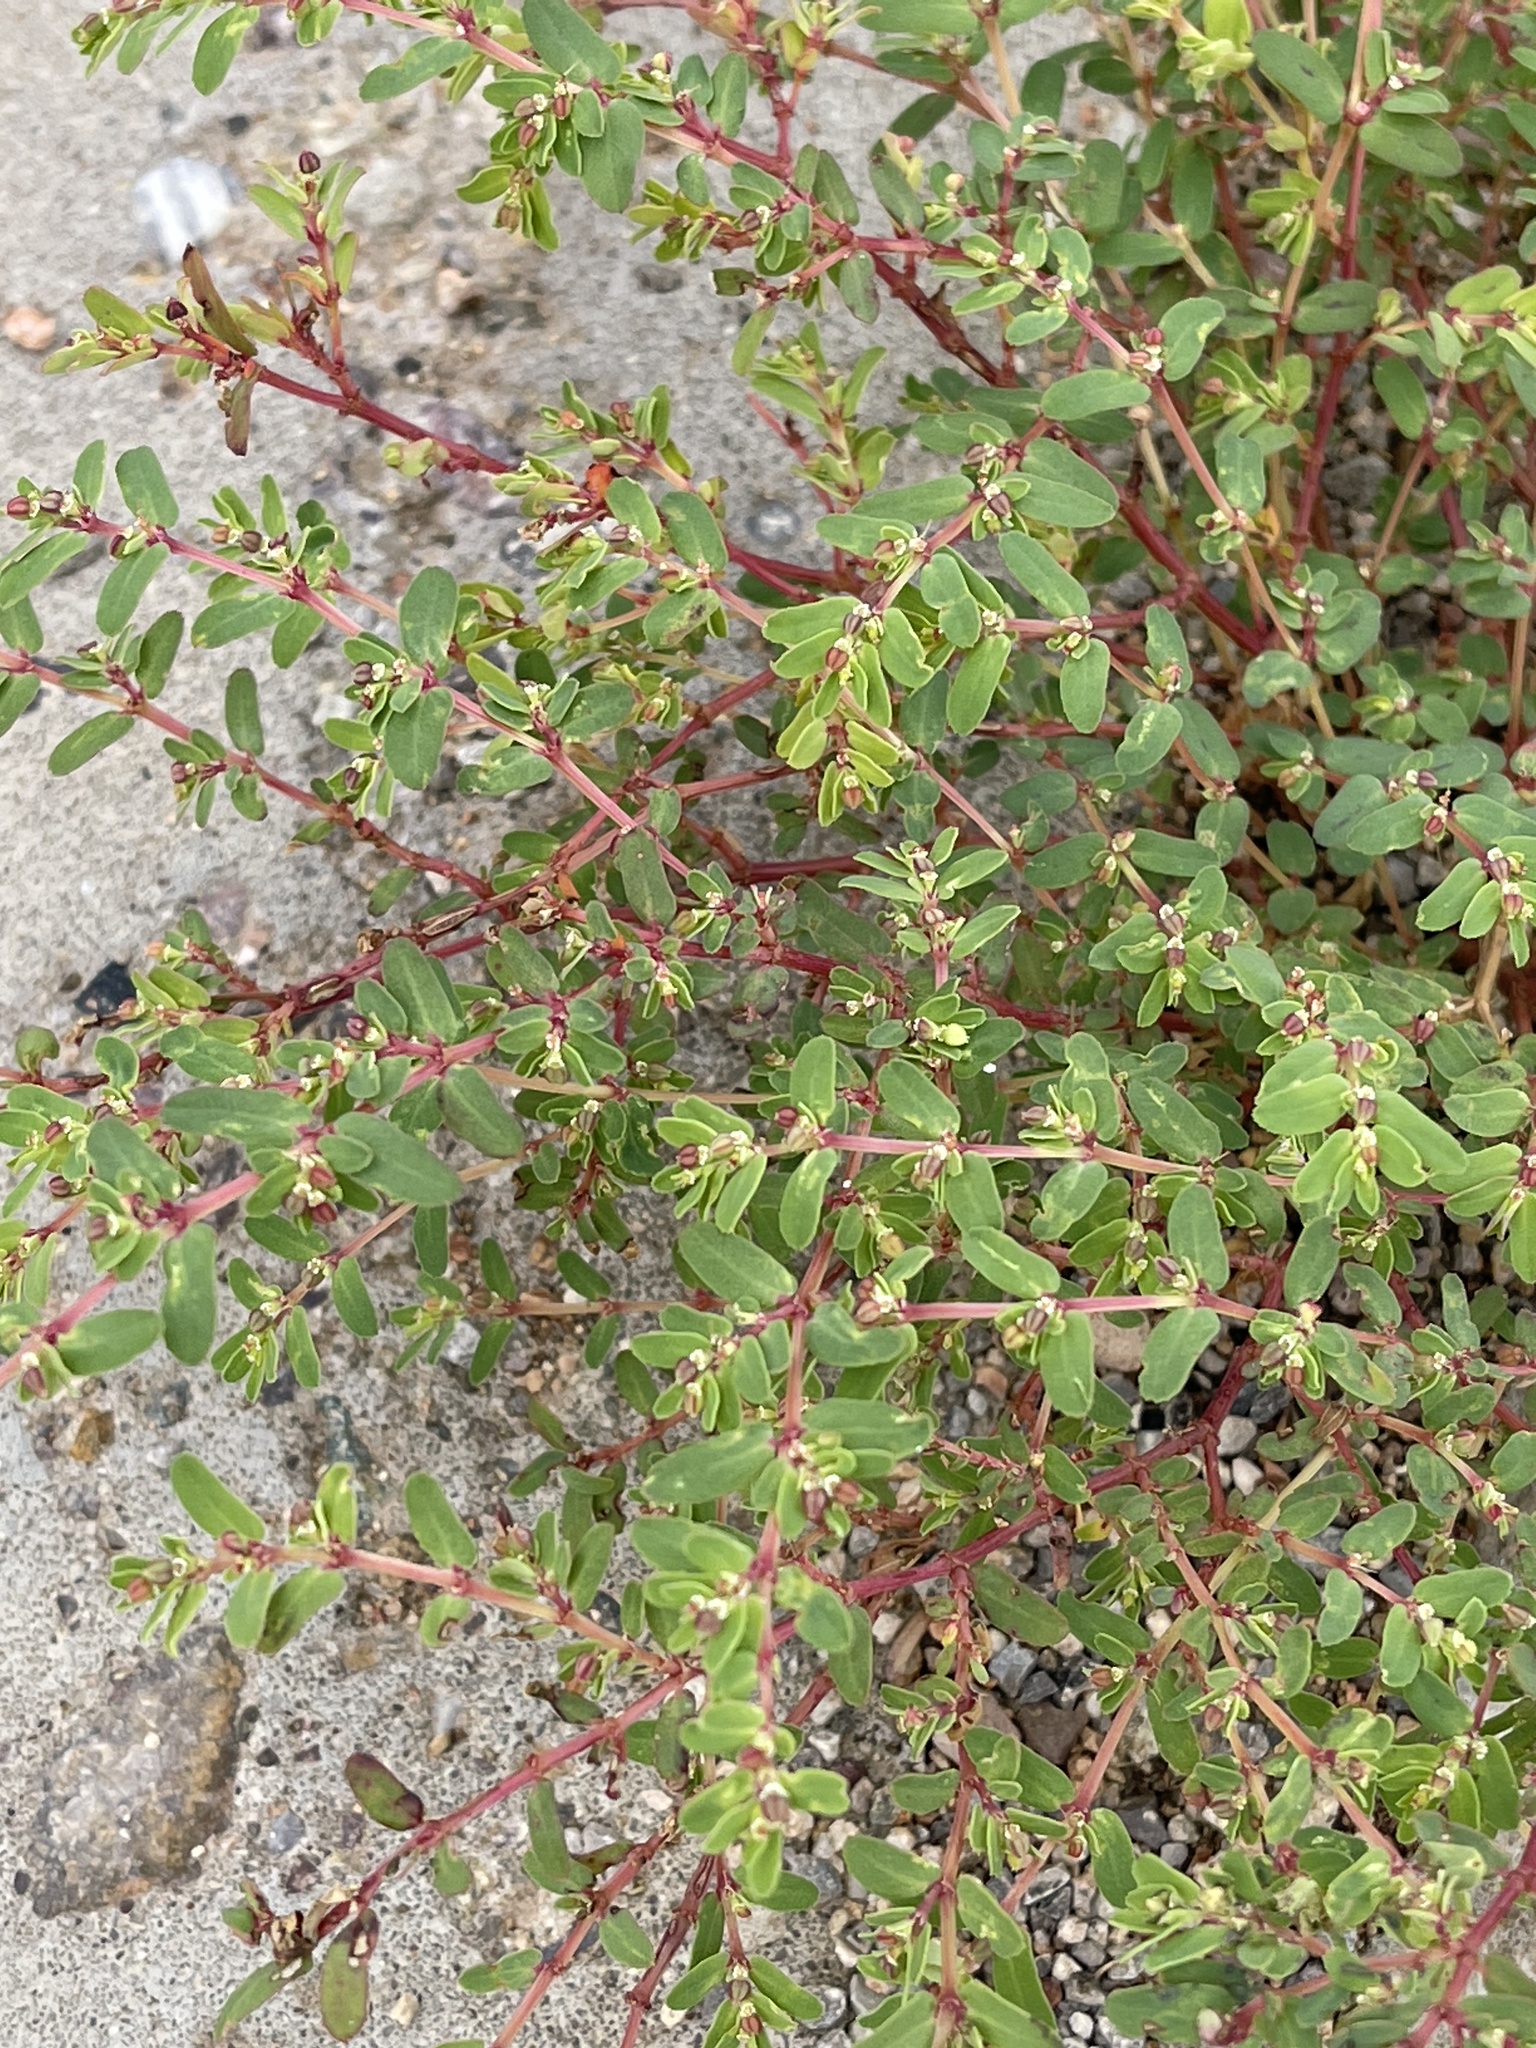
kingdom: Plantae
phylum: Tracheophyta
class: Magnoliopsida
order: Malpighiales
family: Euphorbiaceae
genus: Euphorbia
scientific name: Euphorbia serpillifolia
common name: Thyme-leaf spurge
